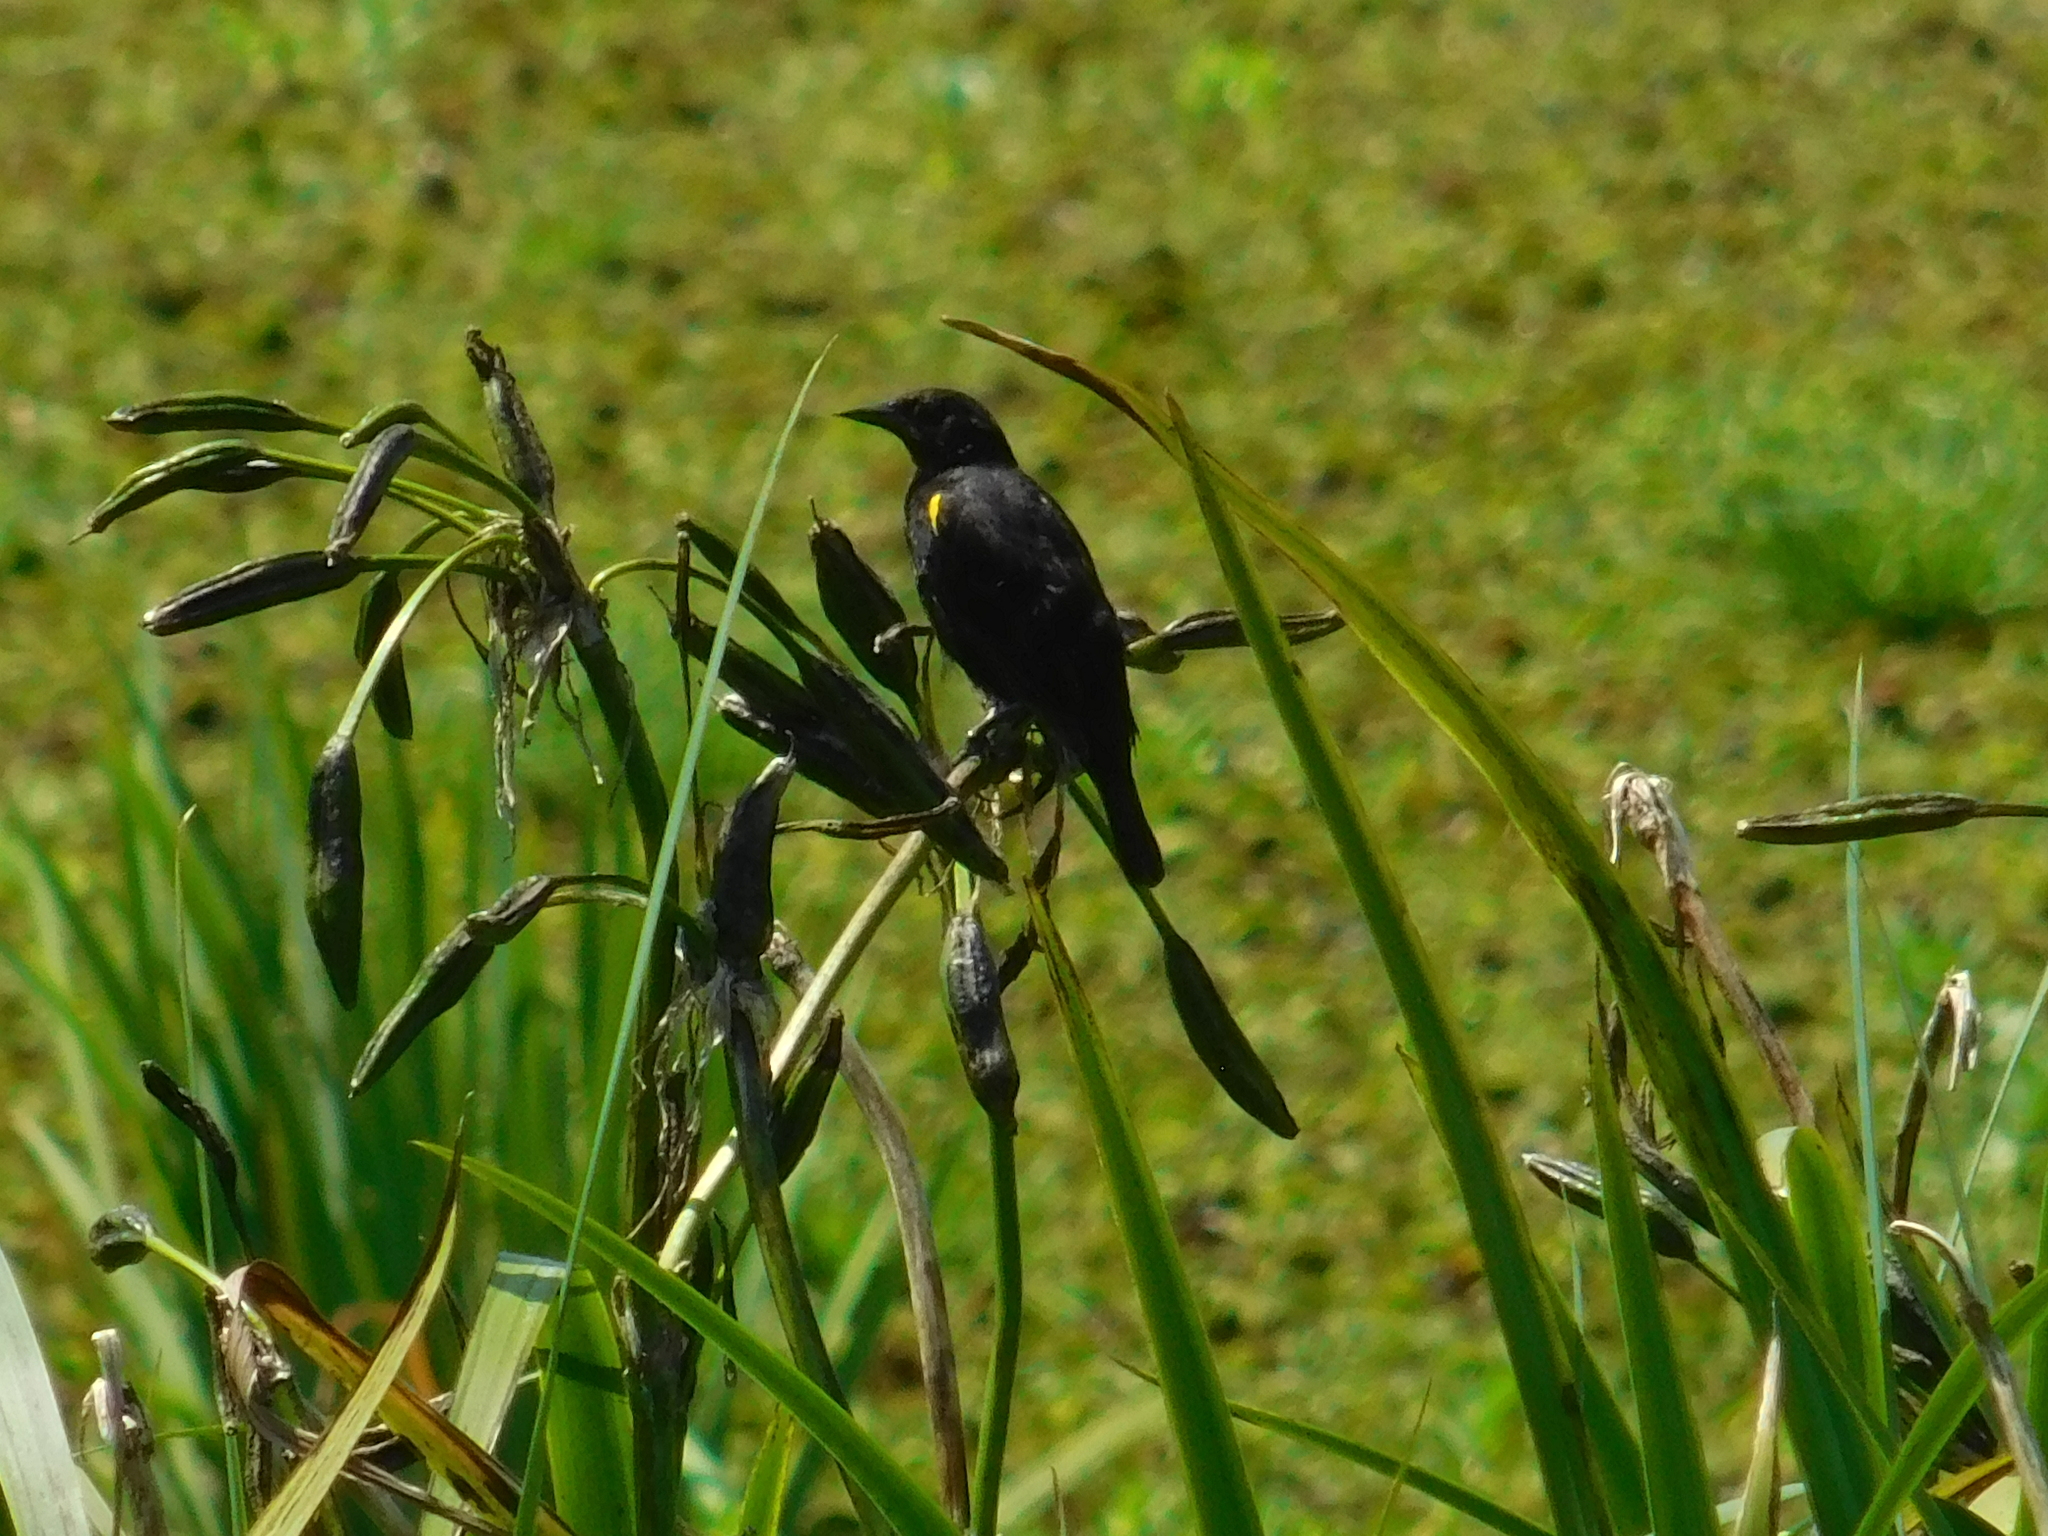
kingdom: Animalia
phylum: Chordata
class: Aves
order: Passeriformes
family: Icteridae
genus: Agelasticus
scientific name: Agelasticus thilius
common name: Yellow-winged blackbird
